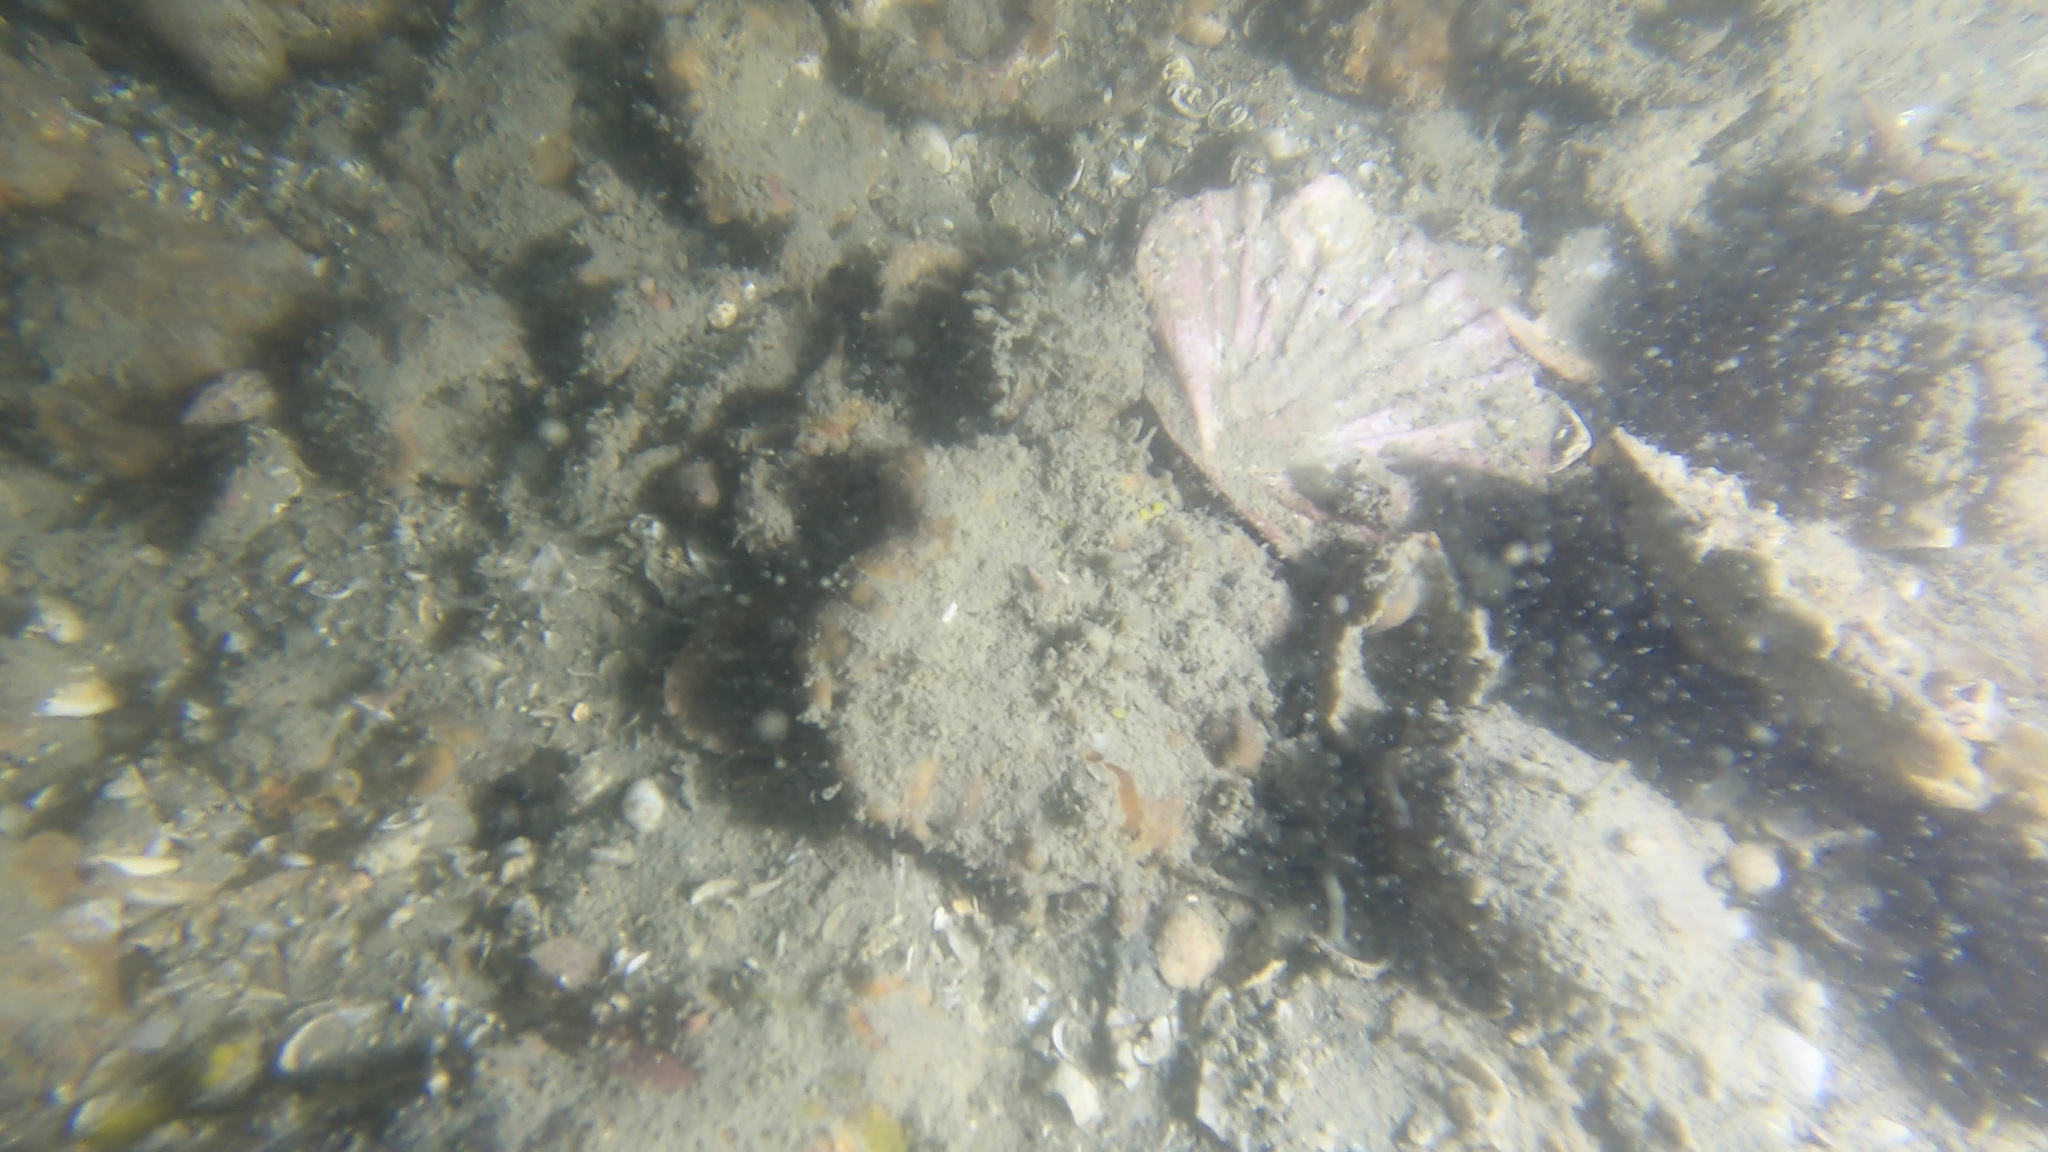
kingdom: Animalia
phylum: Mollusca
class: Bivalvia
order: Pectinida
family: Pectinidae
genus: Pecten
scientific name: Pecten novaezelandiae
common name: New zealand scallop
